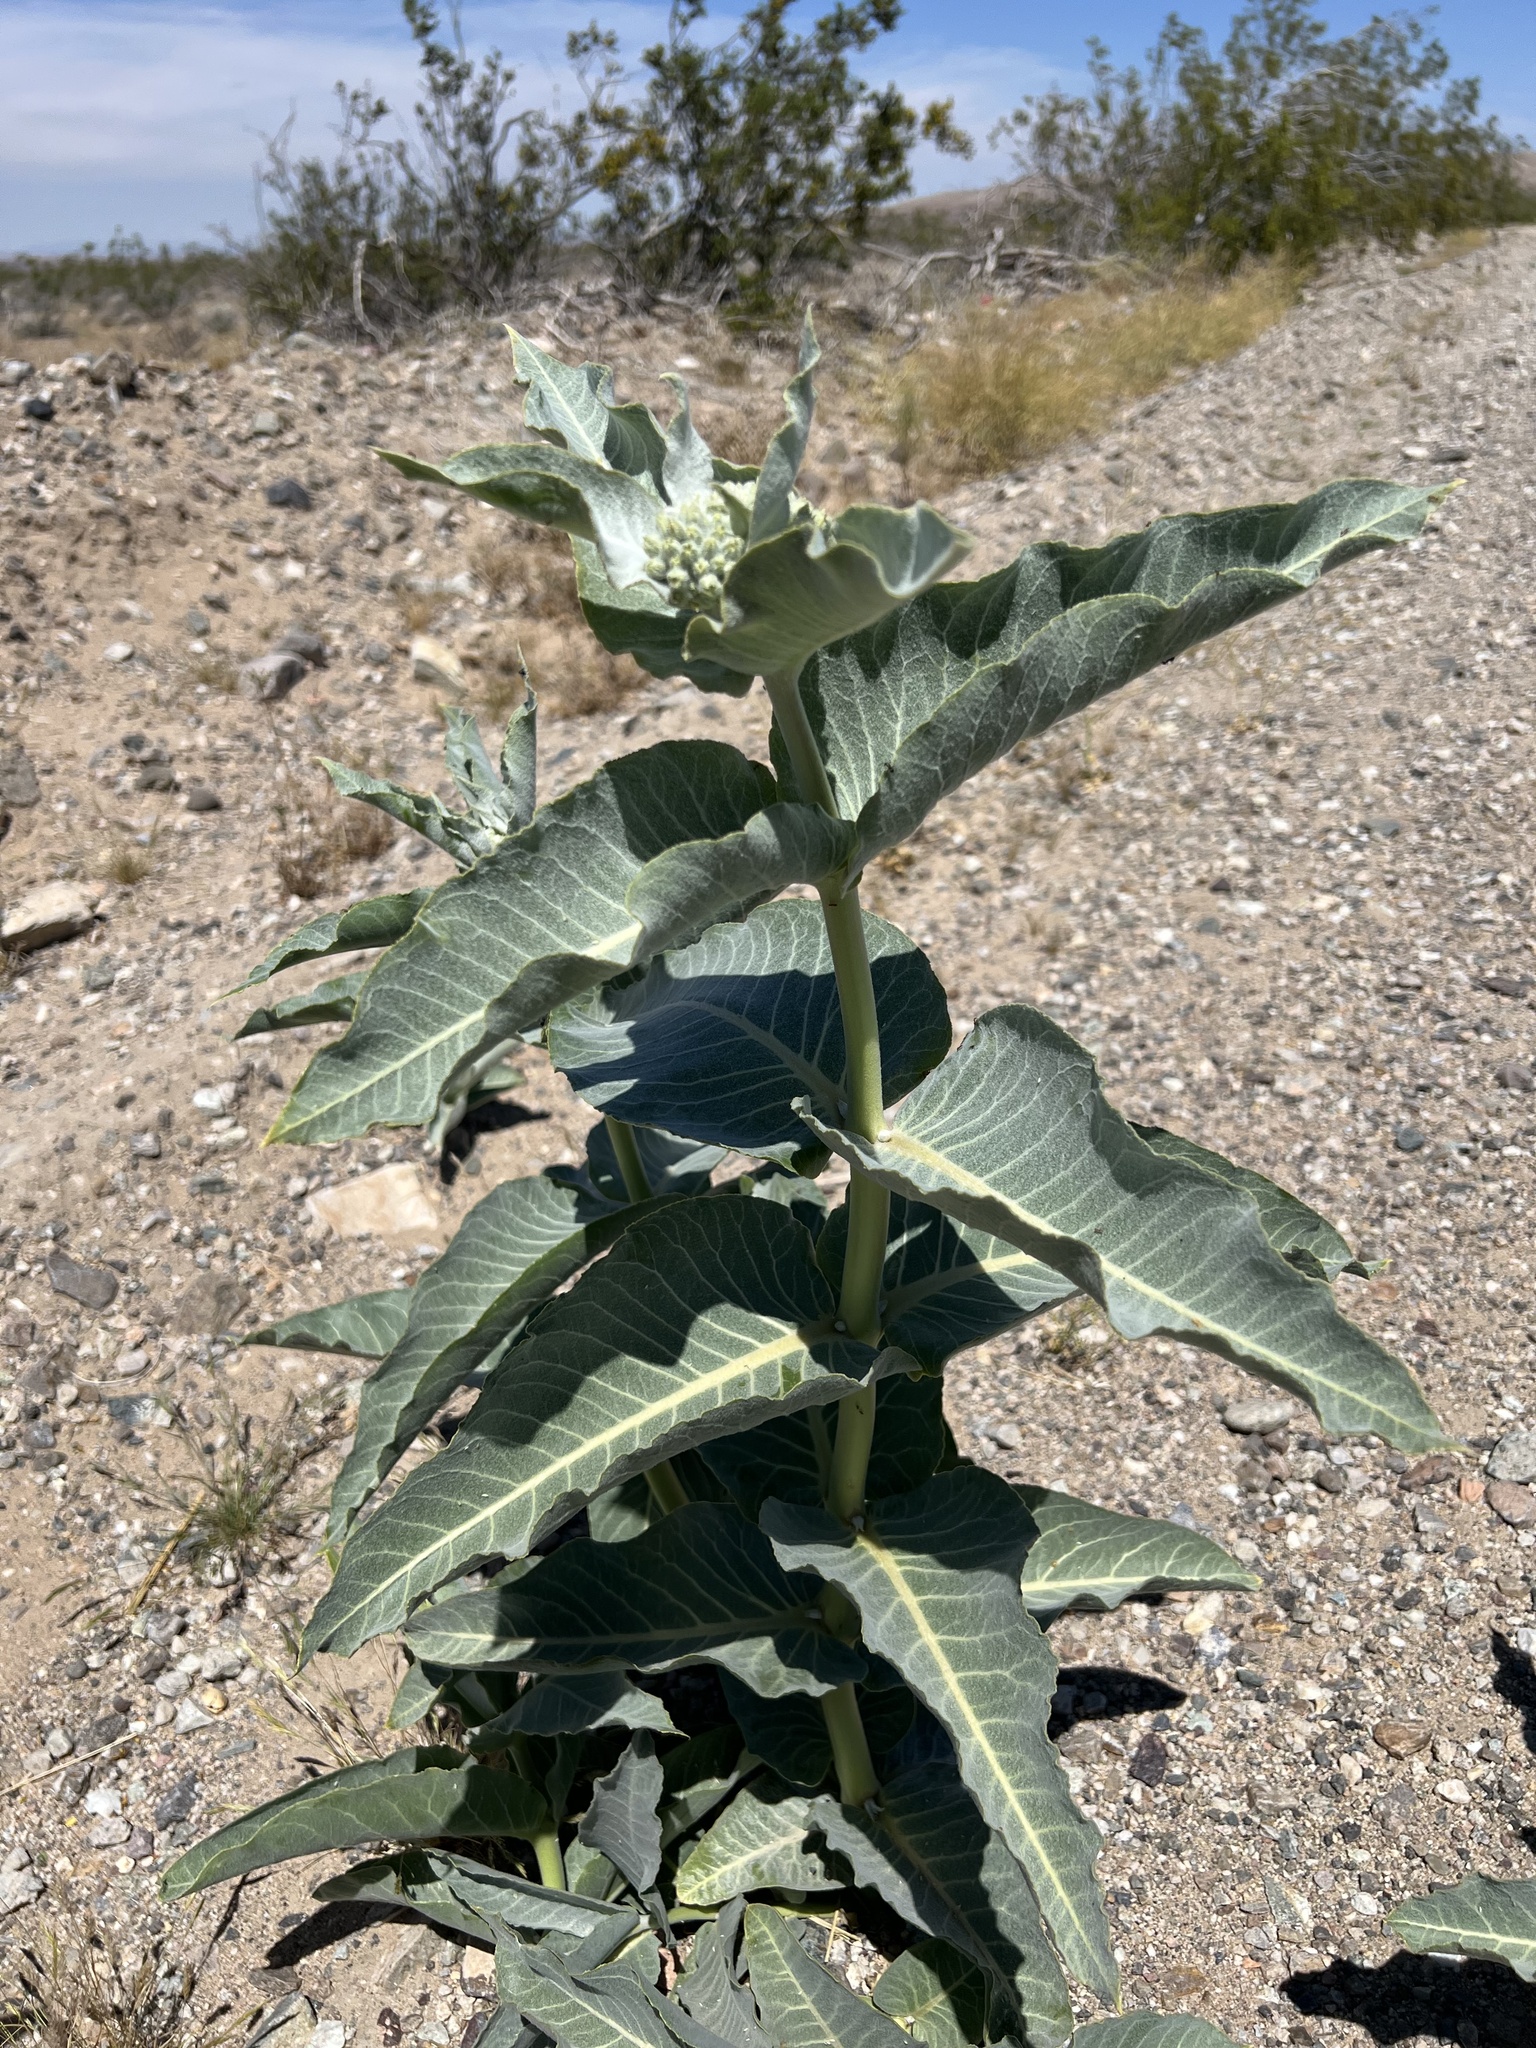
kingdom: Plantae
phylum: Tracheophyta
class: Magnoliopsida
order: Gentianales
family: Apocynaceae
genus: Asclepias
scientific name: Asclepias erosa
